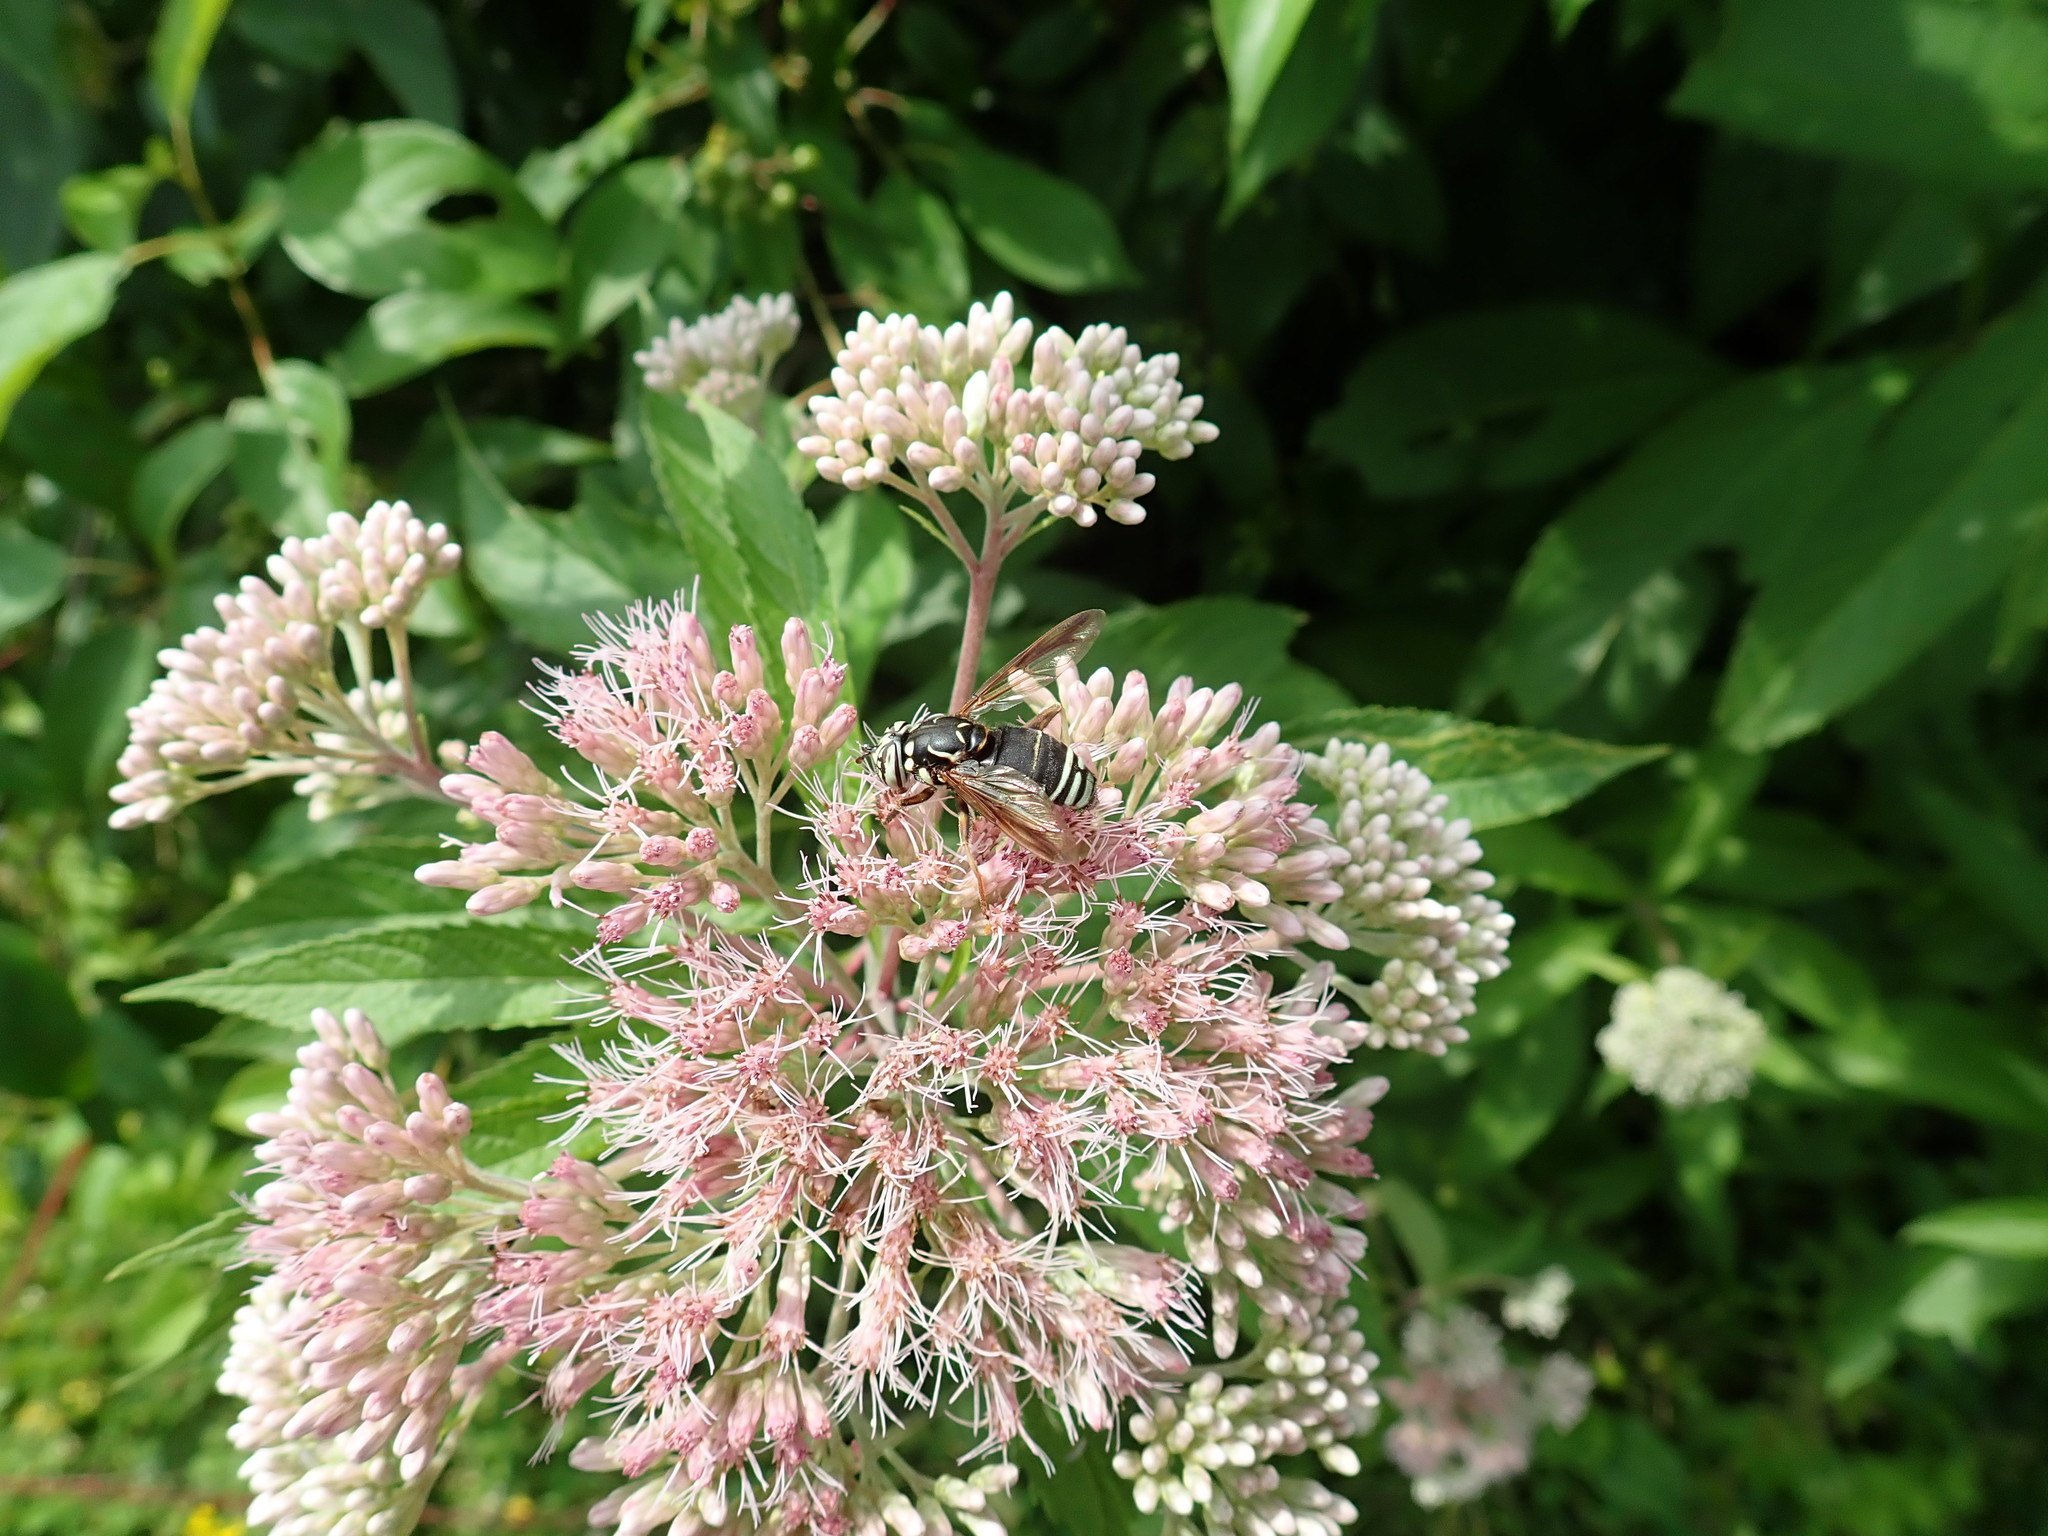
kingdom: Animalia
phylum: Arthropoda
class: Insecta
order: Diptera
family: Syrphidae
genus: Spilomyia
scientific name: Spilomyia fusca
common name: Bald-faced hornet fly
